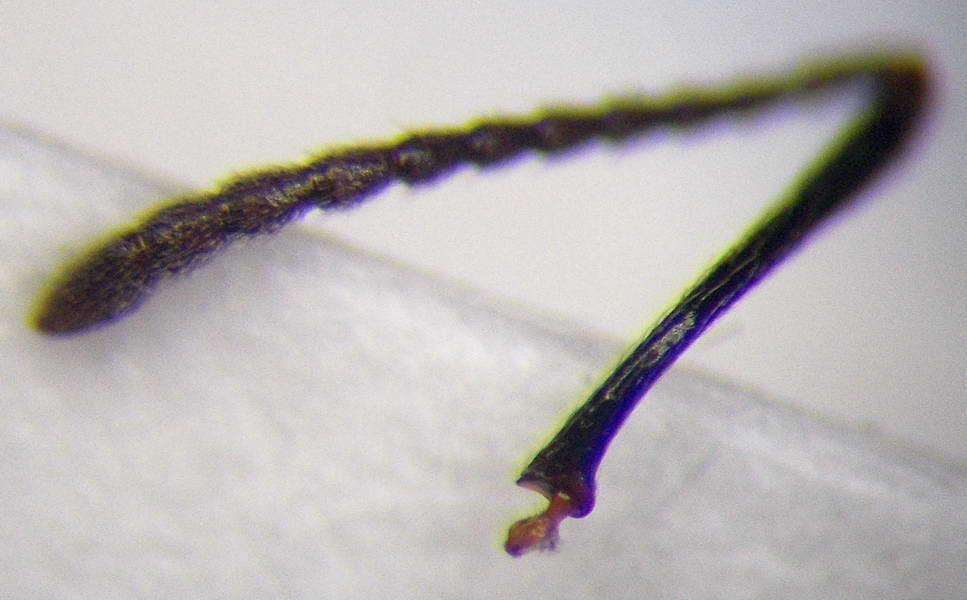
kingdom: Animalia
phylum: Arthropoda
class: Insecta
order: Hymenoptera
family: Formicidae
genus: Messor
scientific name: Messor denticulatus
